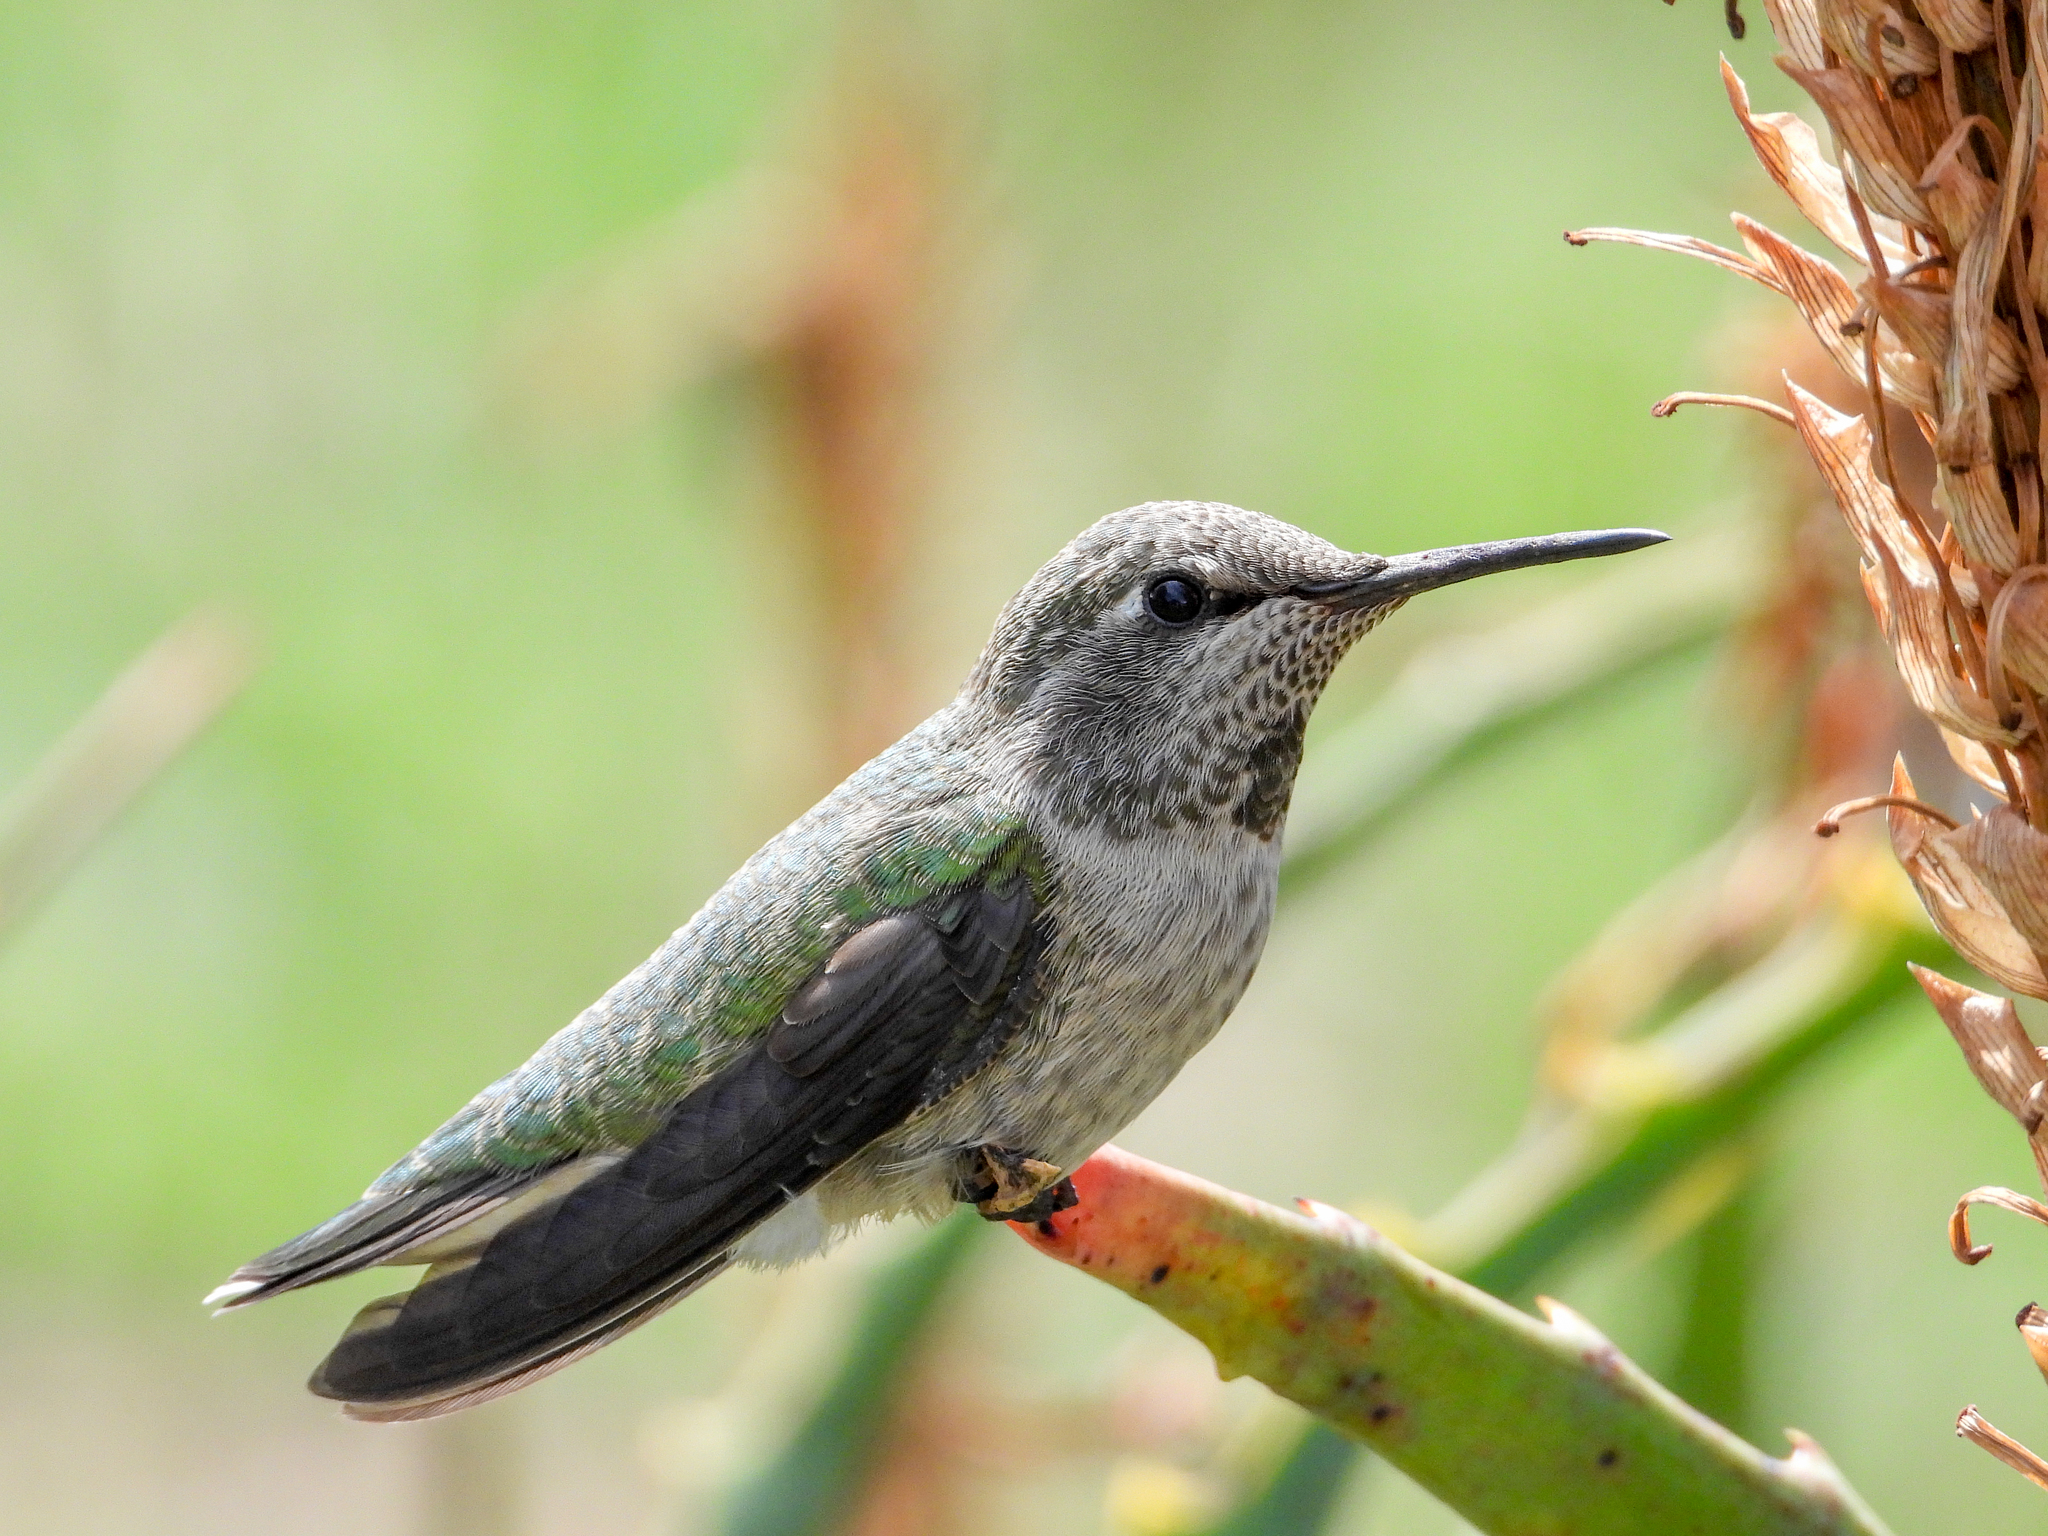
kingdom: Animalia
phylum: Chordata
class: Aves
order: Apodiformes
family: Trochilidae
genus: Calypte
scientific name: Calypte anna
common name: Anna's hummingbird
